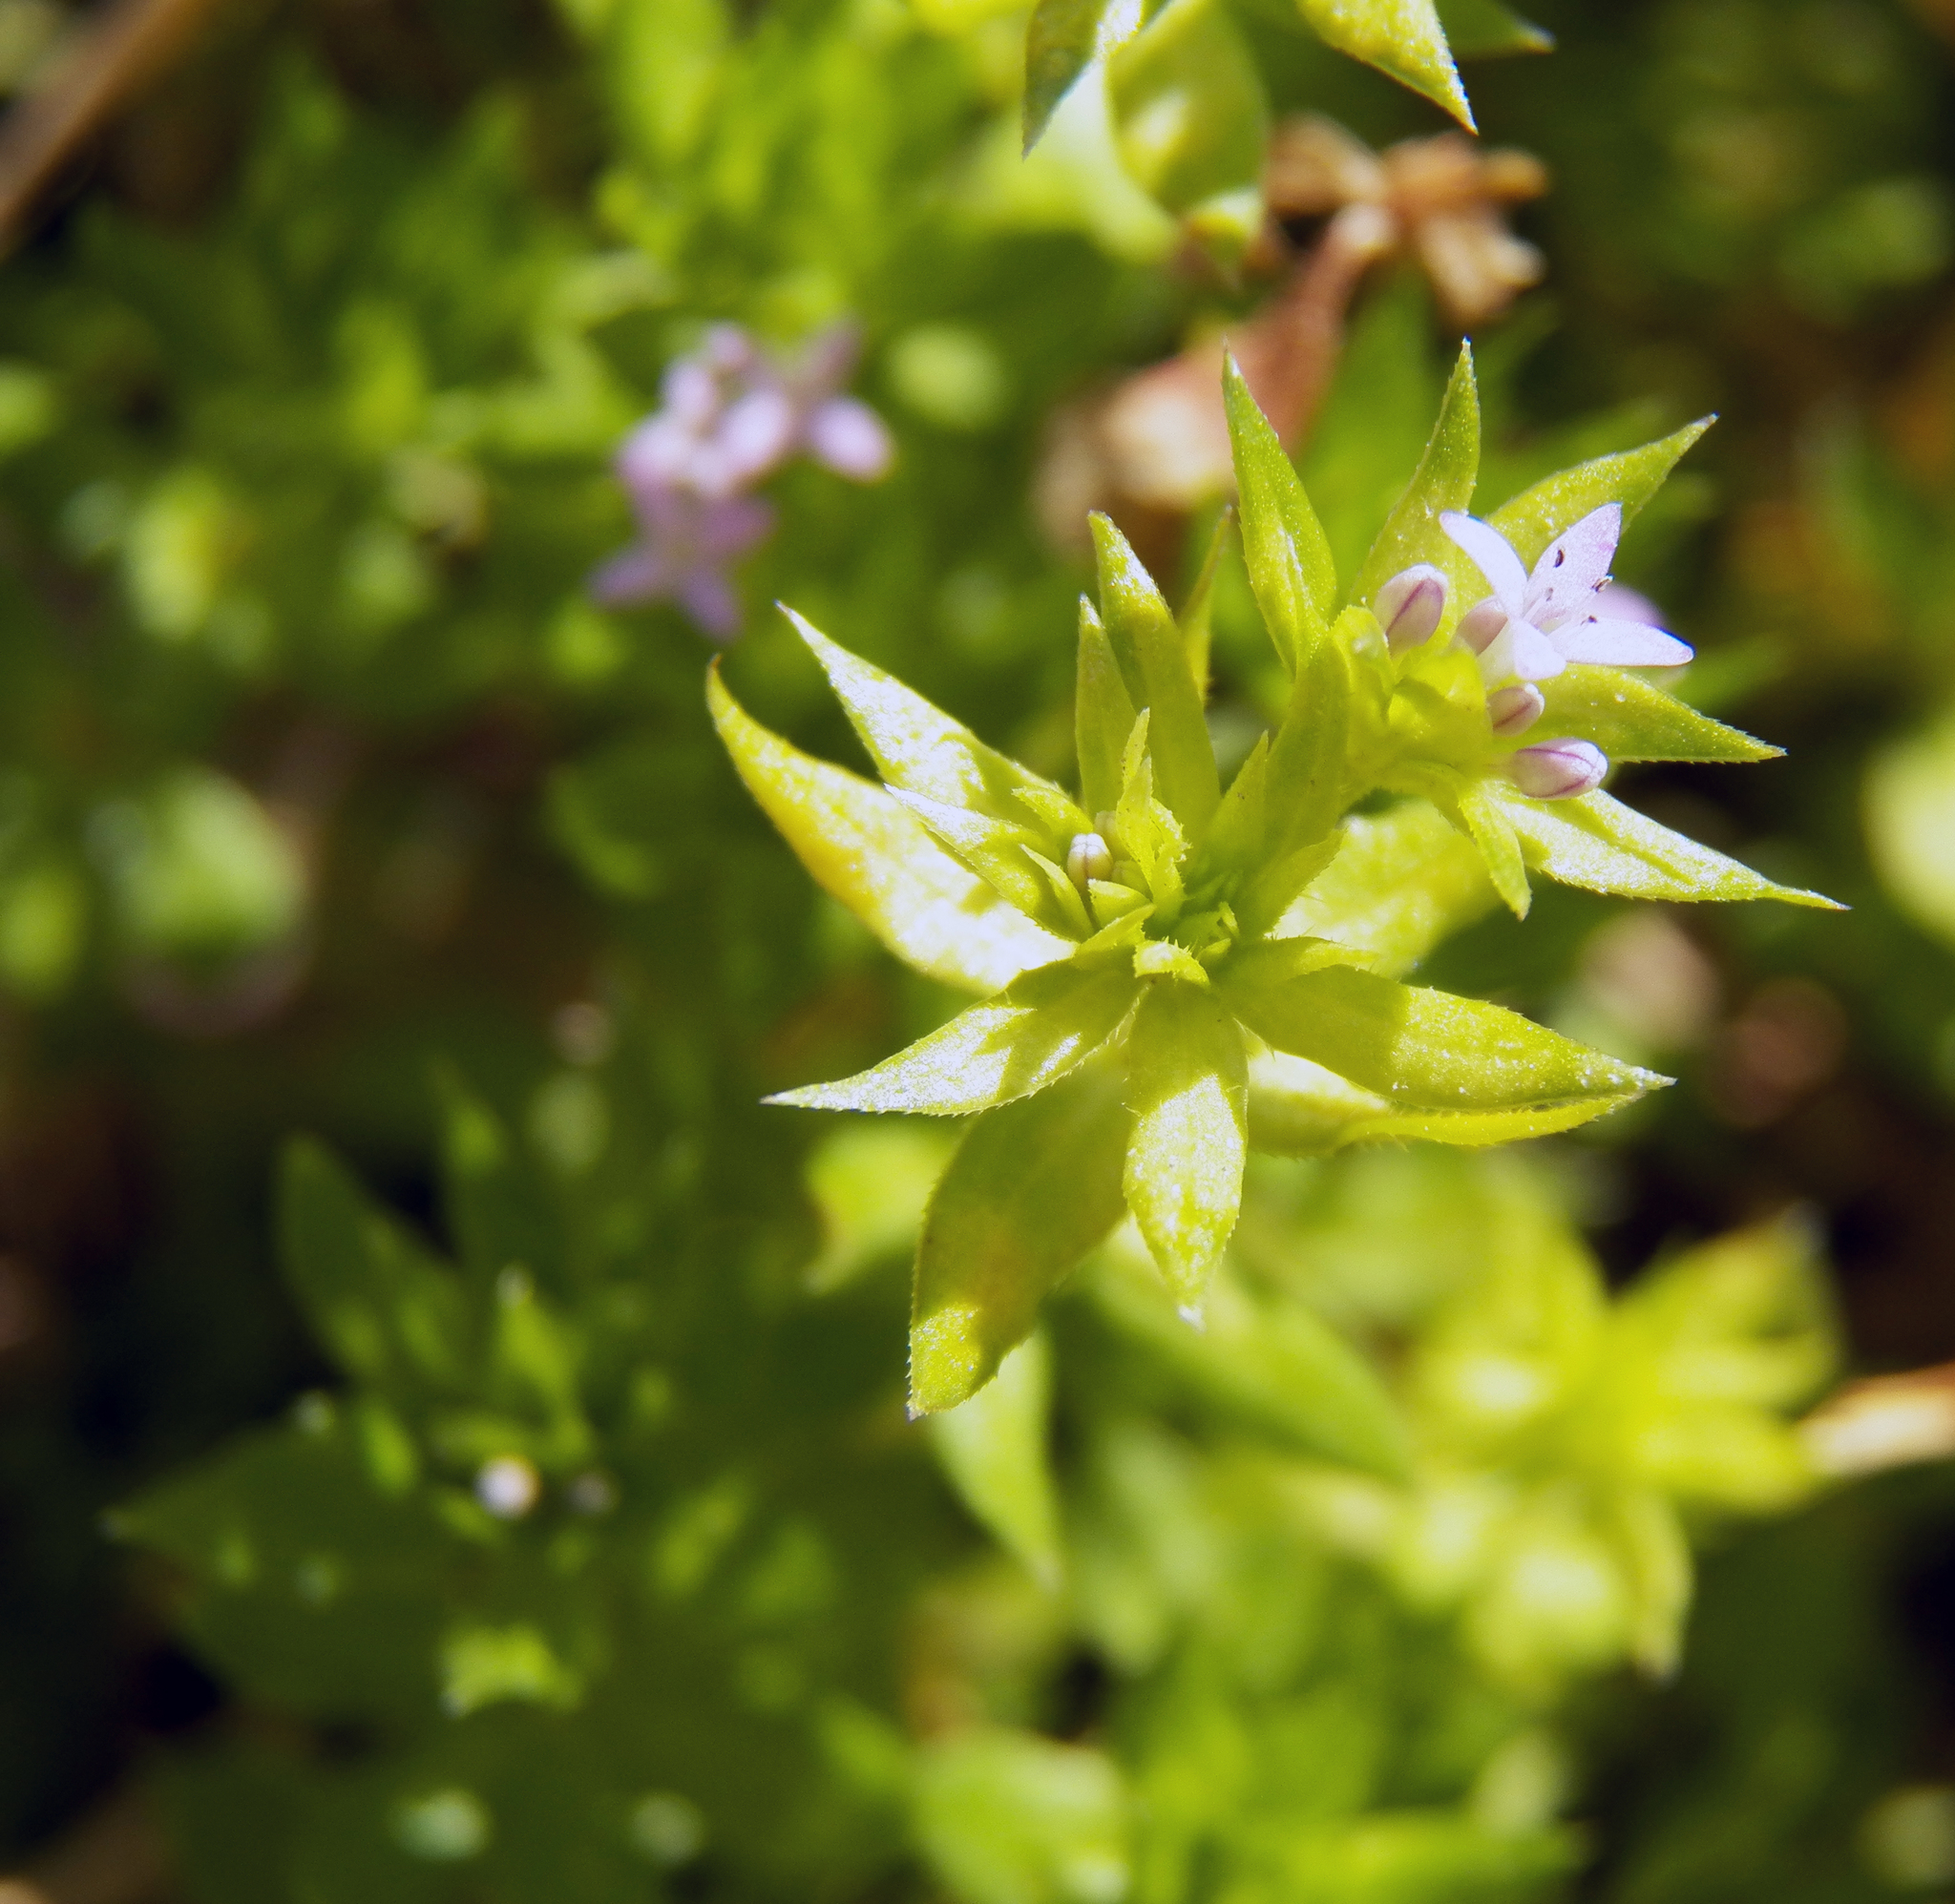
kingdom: Plantae
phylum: Tracheophyta
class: Magnoliopsida
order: Gentianales
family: Rubiaceae
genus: Sherardia
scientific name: Sherardia arvensis
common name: Field madder
